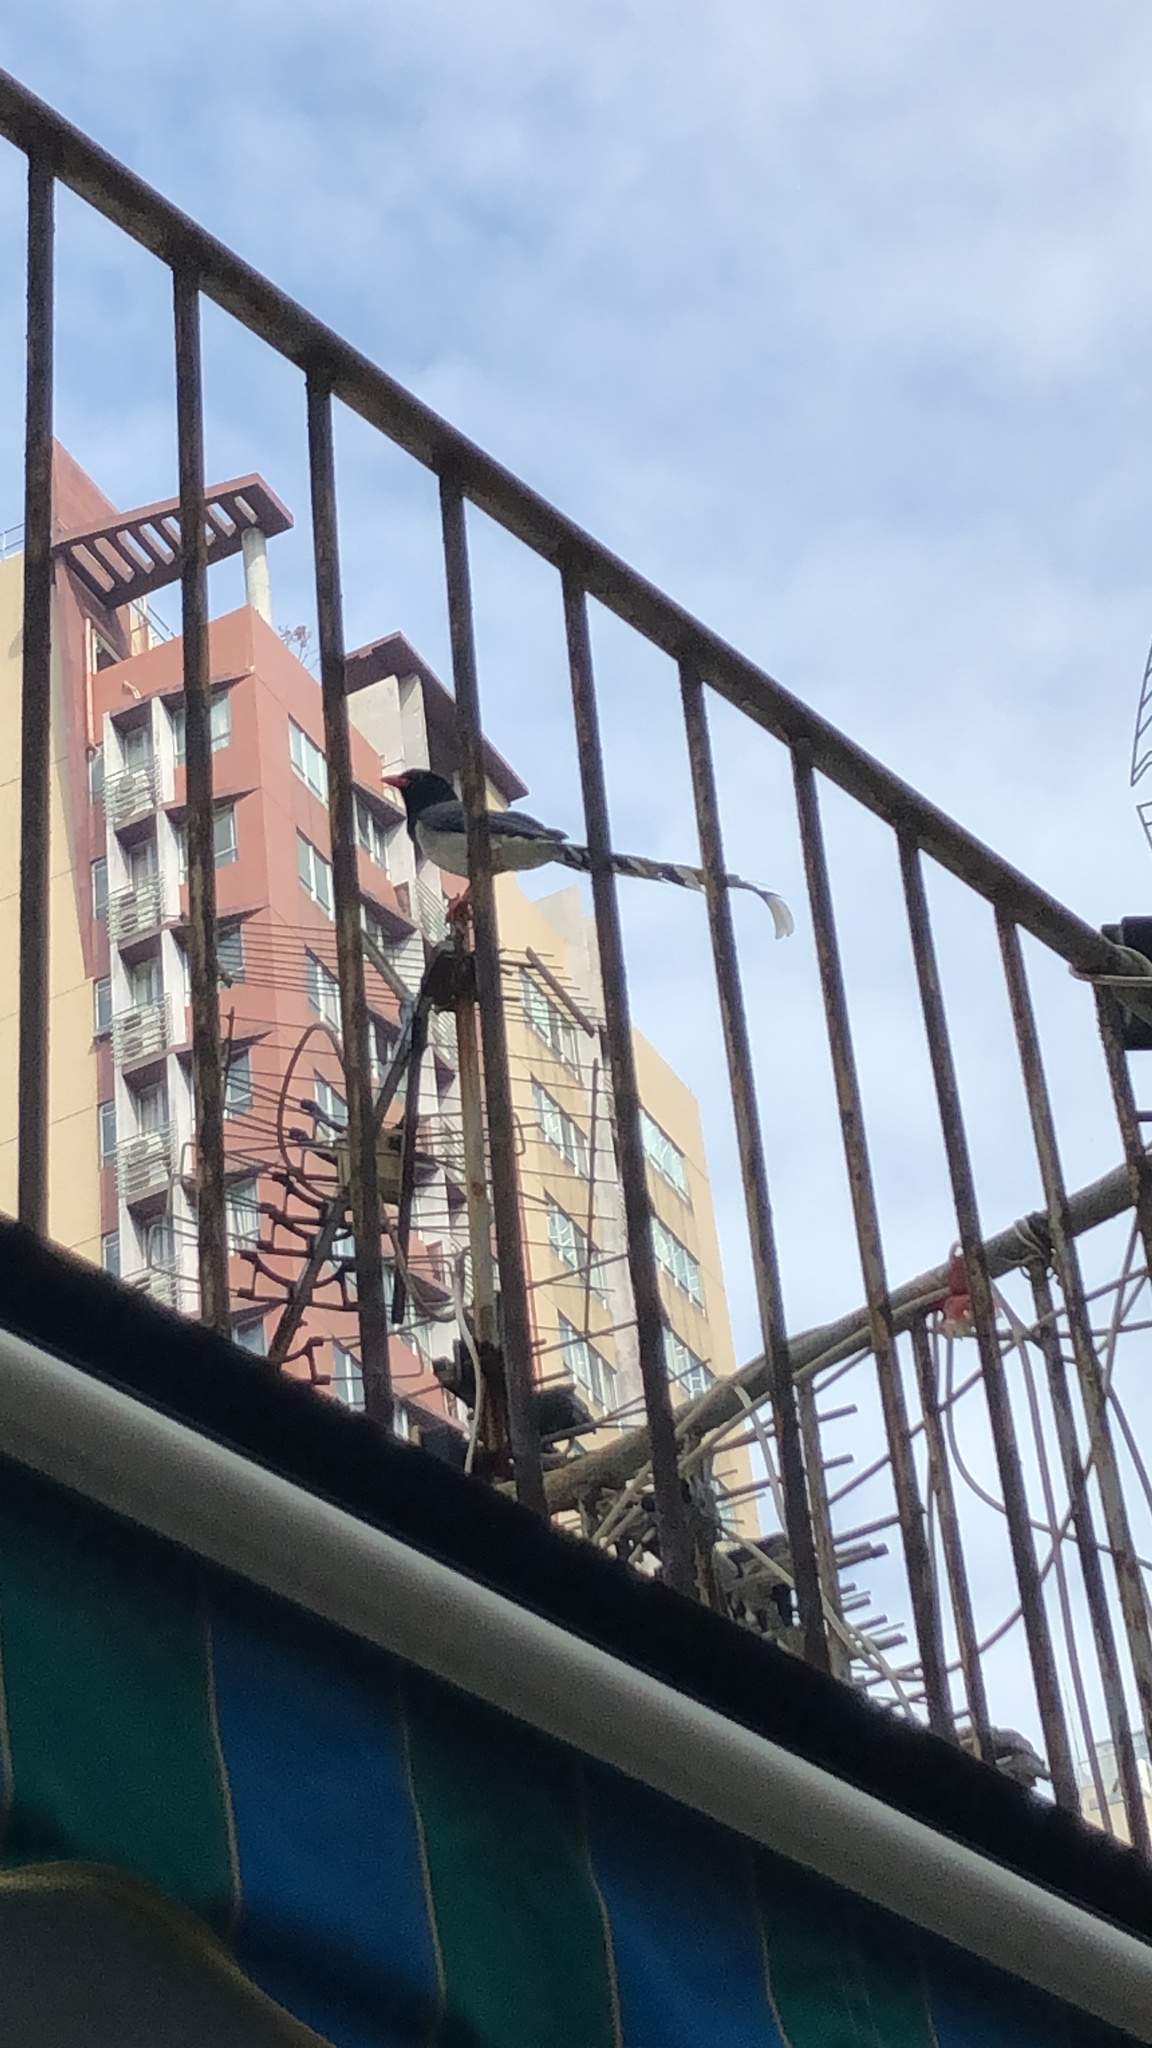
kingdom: Animalia
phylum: Chordata
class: Aves
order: Passeriformes
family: Corvidae
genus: Urocissa
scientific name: Urocissa erythroryncha
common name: Red-billed blue magpie
